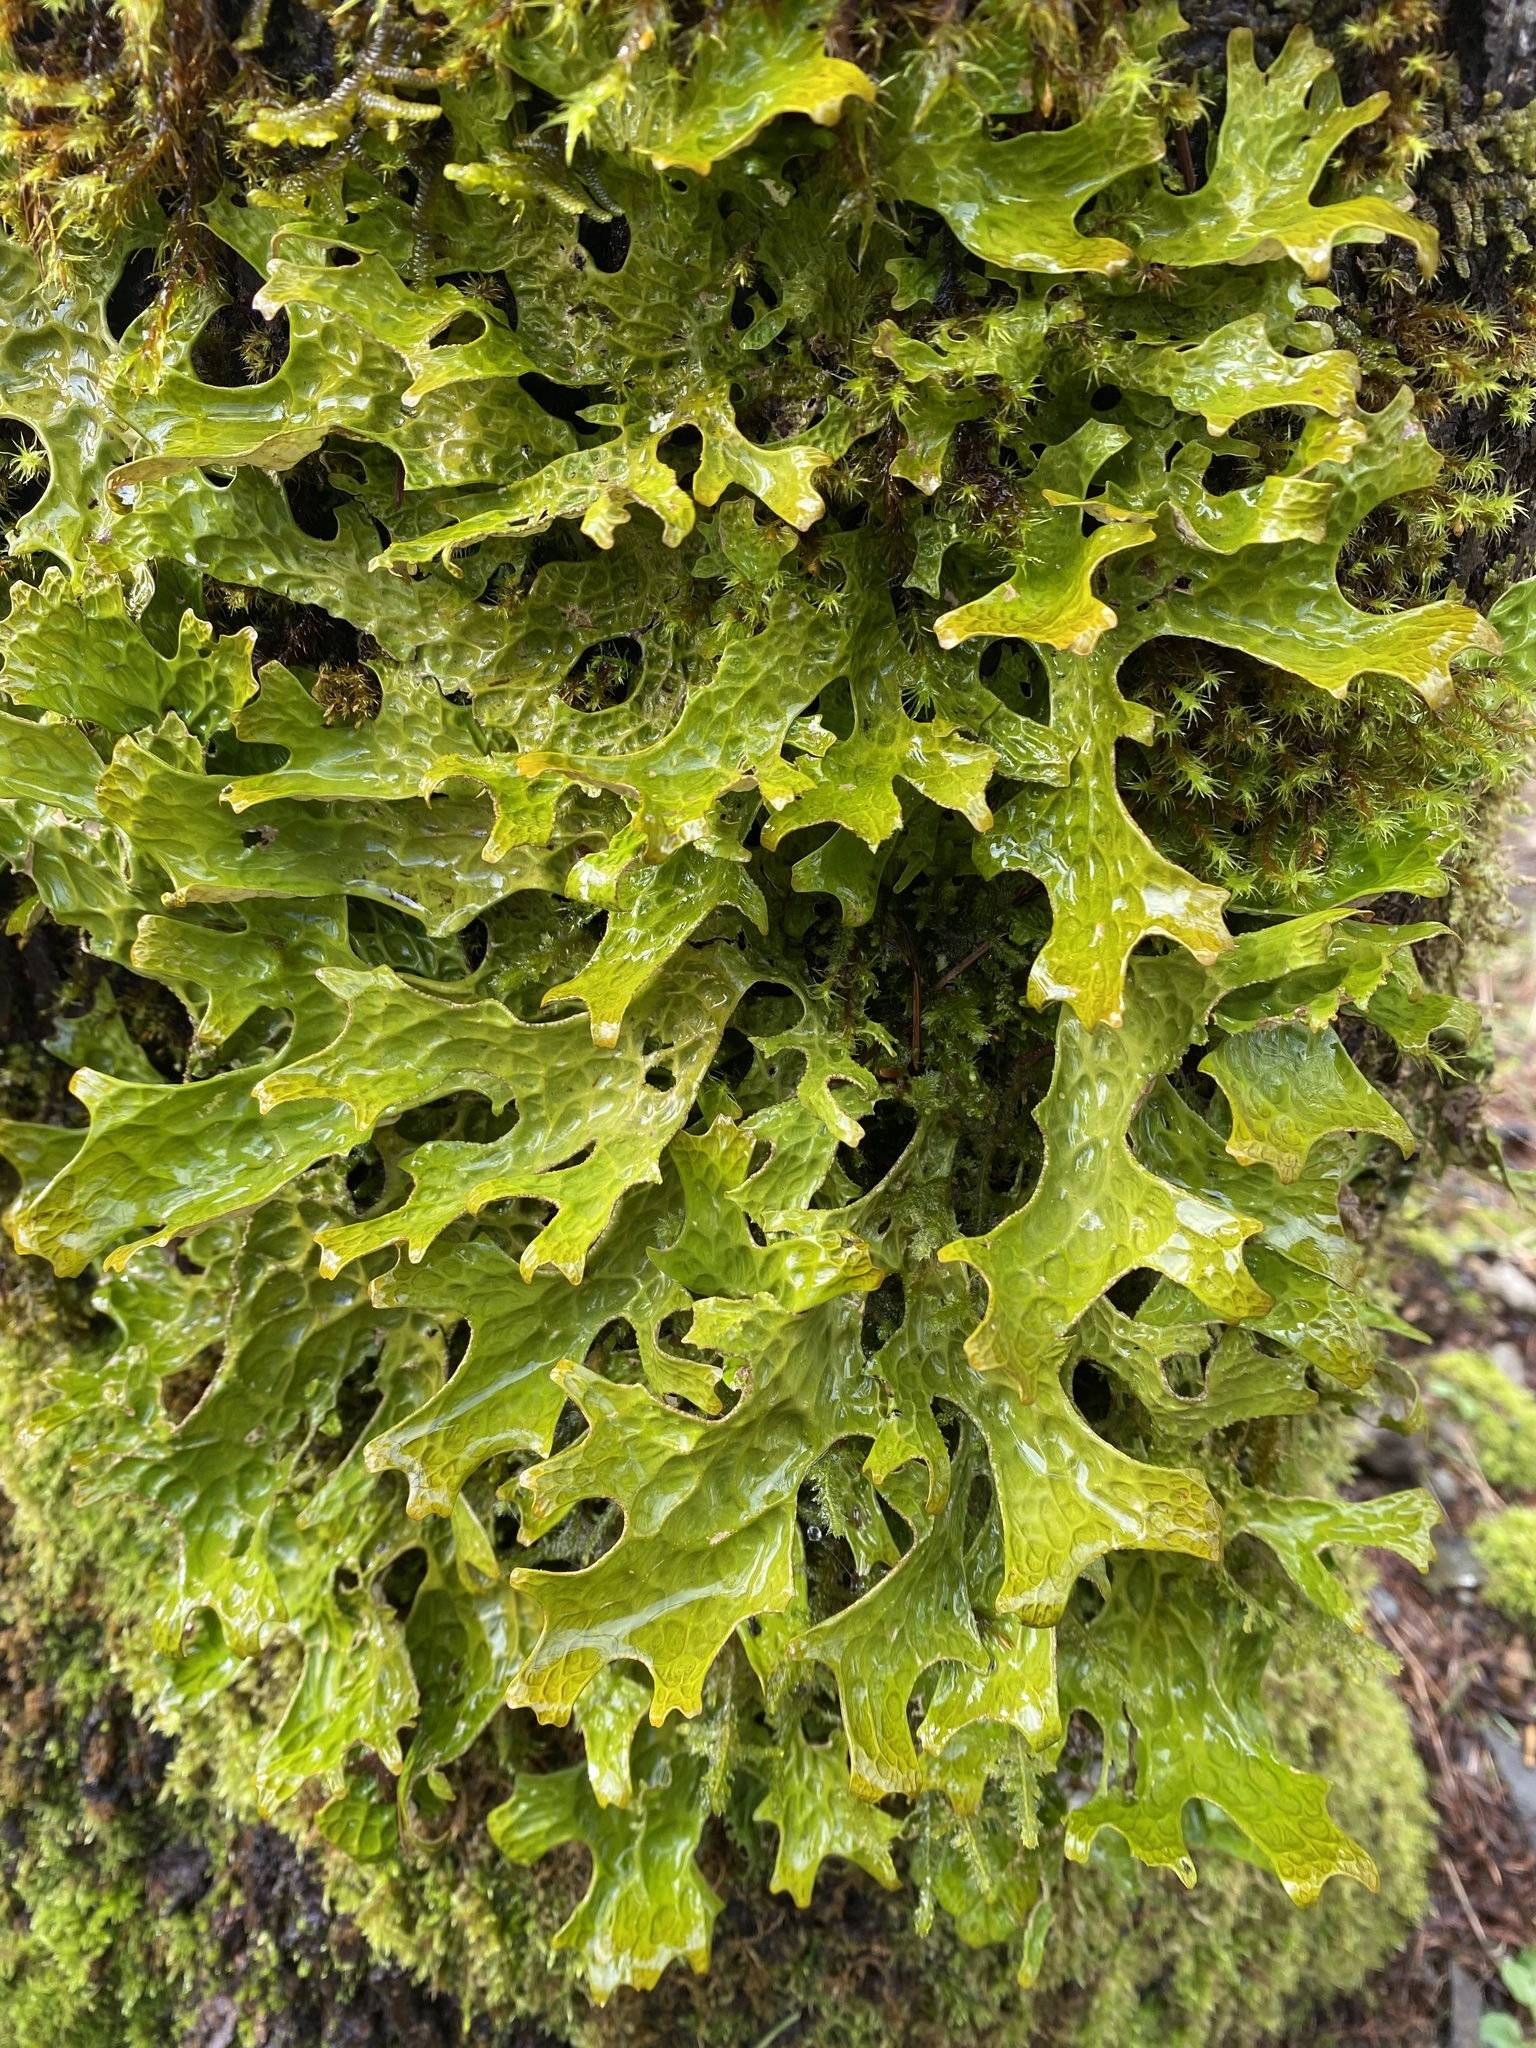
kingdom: Fungi
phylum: Ascomycota
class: Lecanoromycetes
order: Peltigerales
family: Lobariaceae
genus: Lobaria
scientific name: Lobaria pulmonaria
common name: Lungwort
